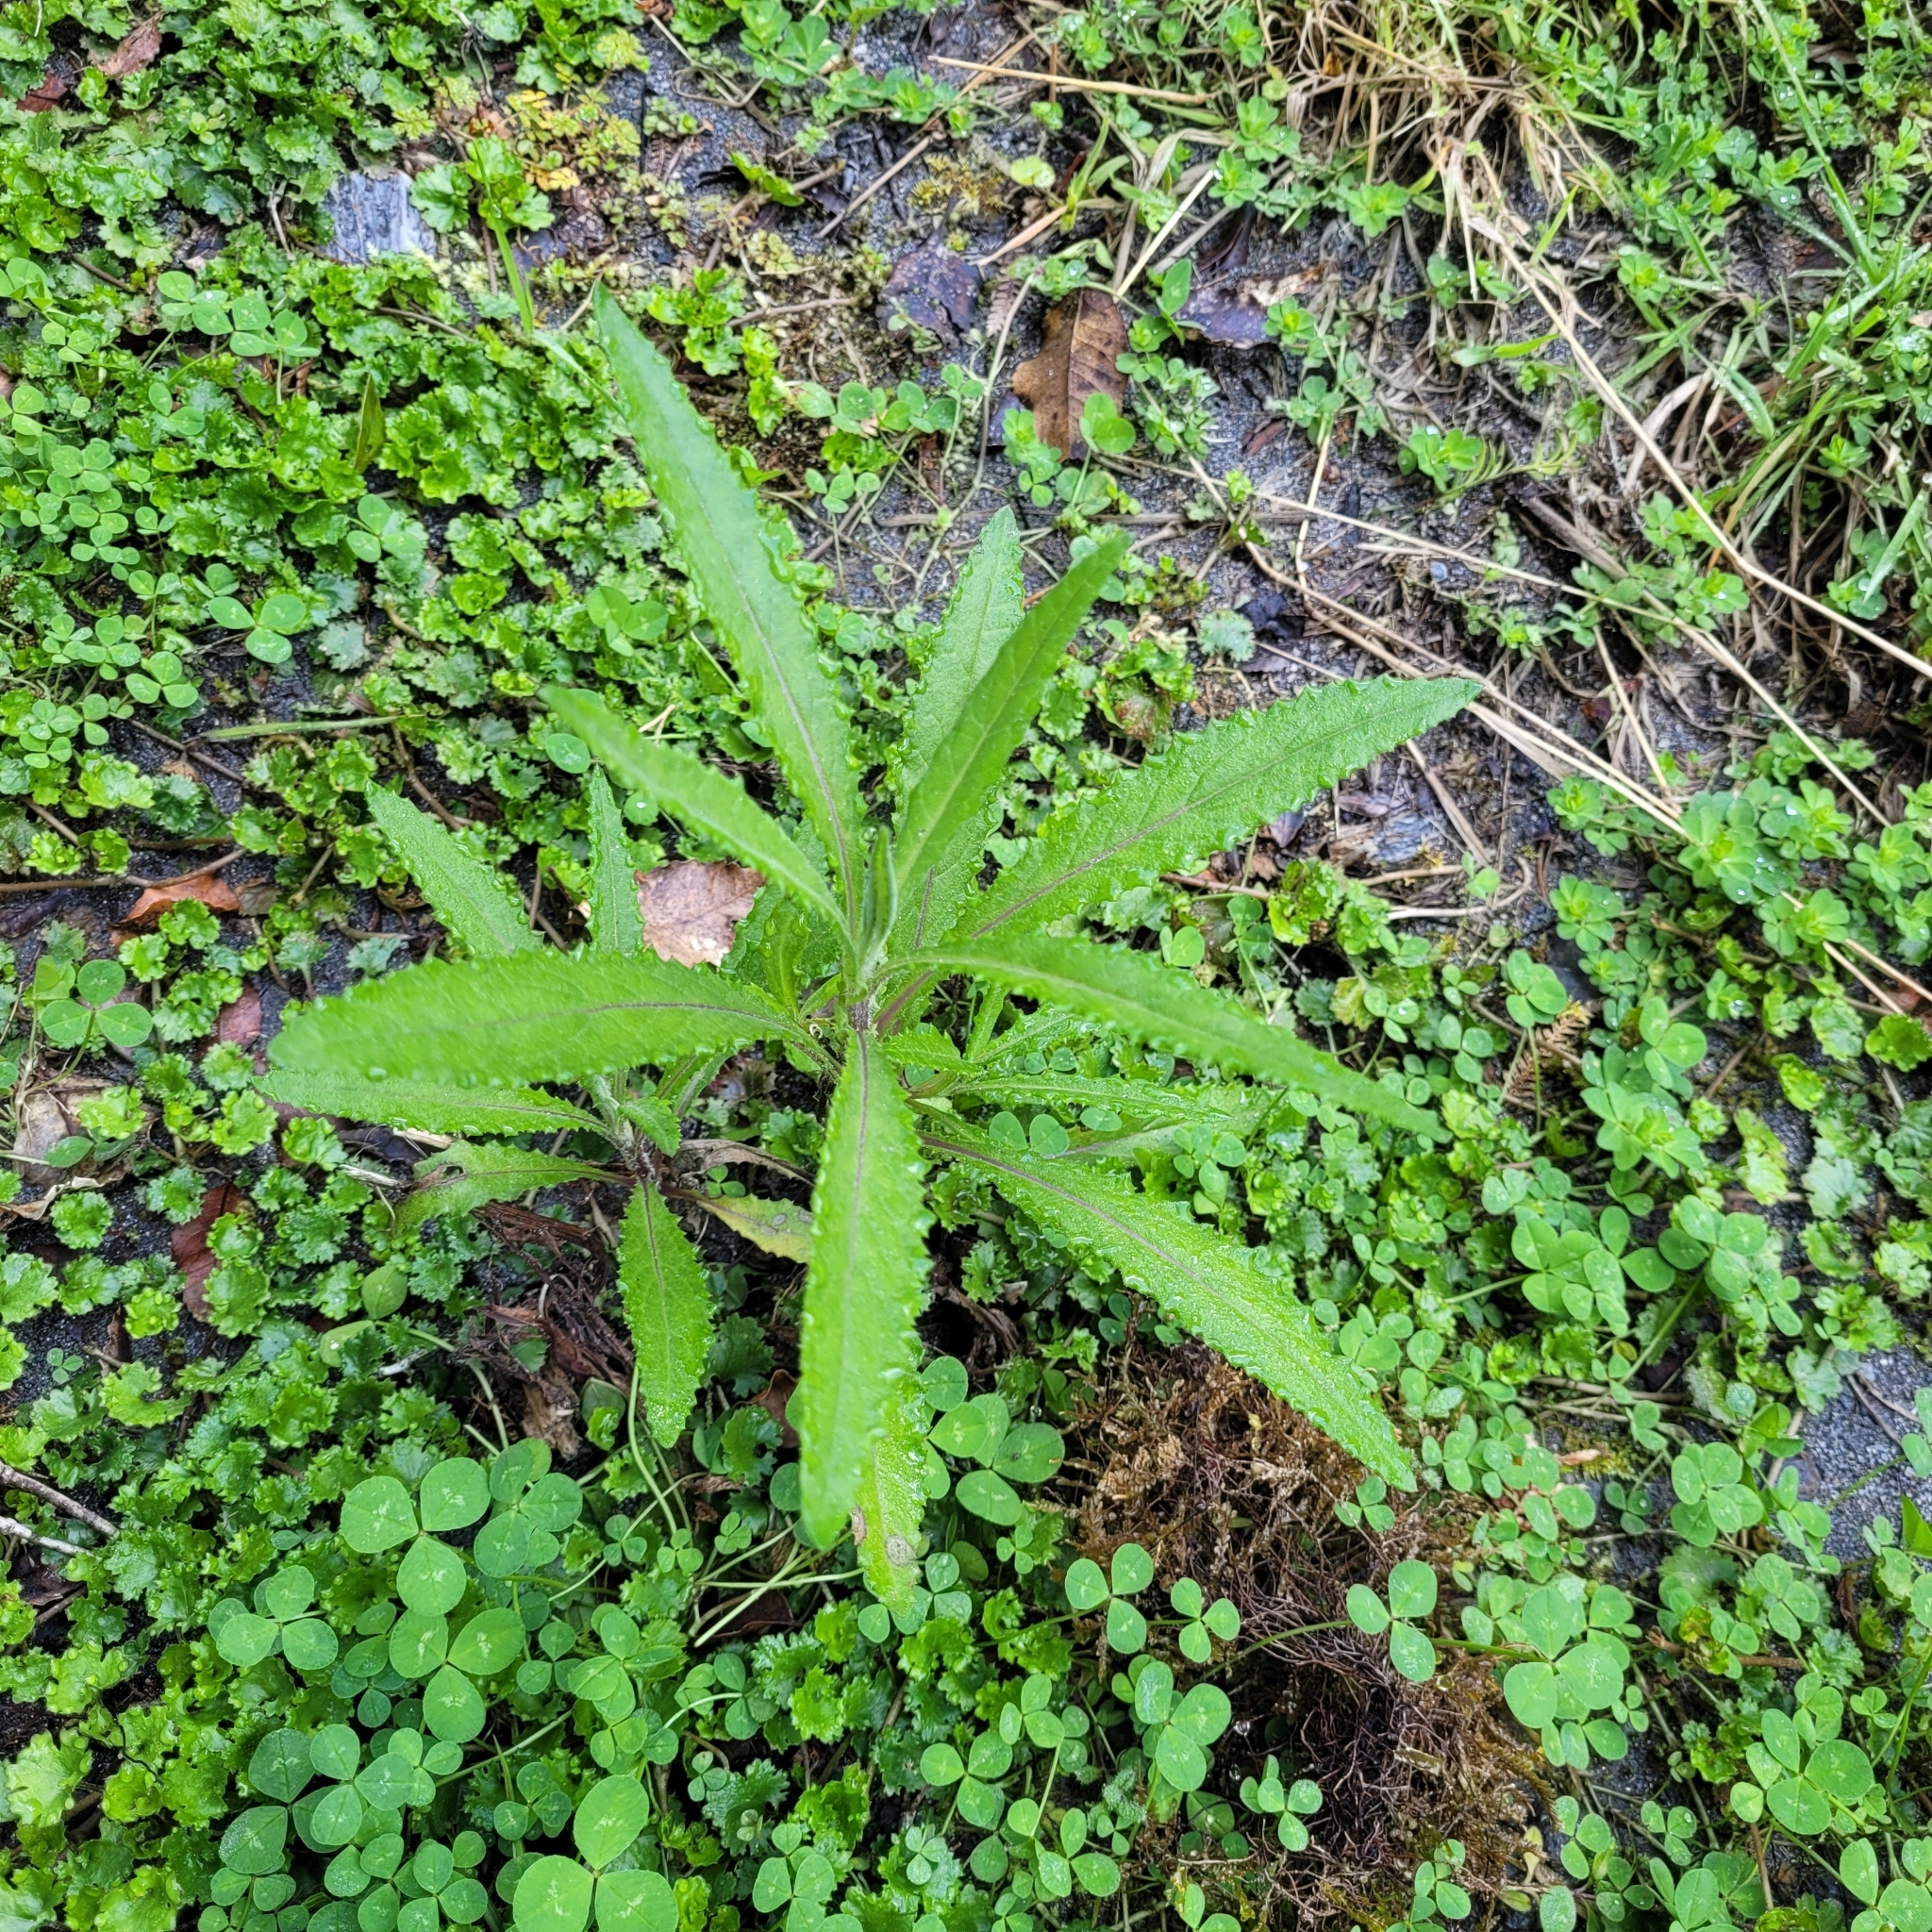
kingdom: Plantae
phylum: Tracheophyta
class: Magnoliopsida
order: Asterales
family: Asteraceae
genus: Senecio
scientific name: Senecio minimus
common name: Toothed fireweed
